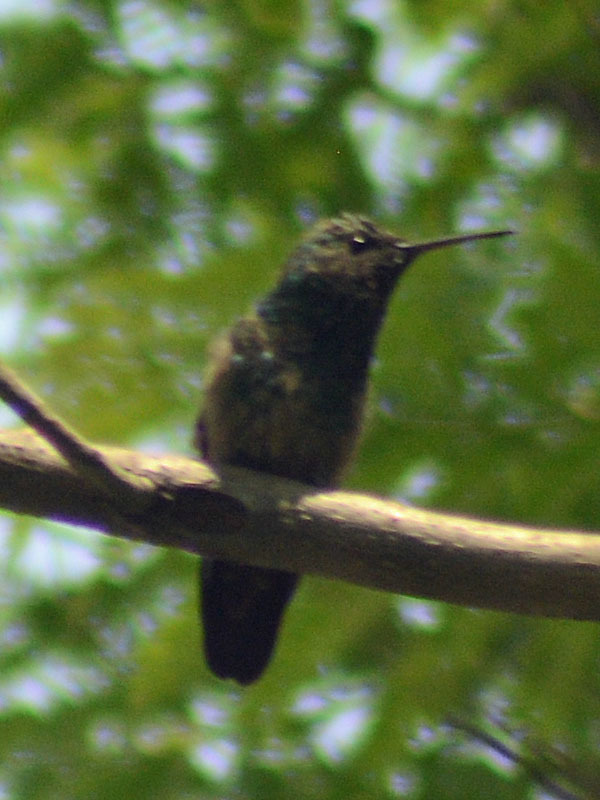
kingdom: Animalia
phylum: Chordata
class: Aves
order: Apodiformes
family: Trochilidae
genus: Saucerottia
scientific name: Saucerottia beryllina
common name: Berylline hummingbird
